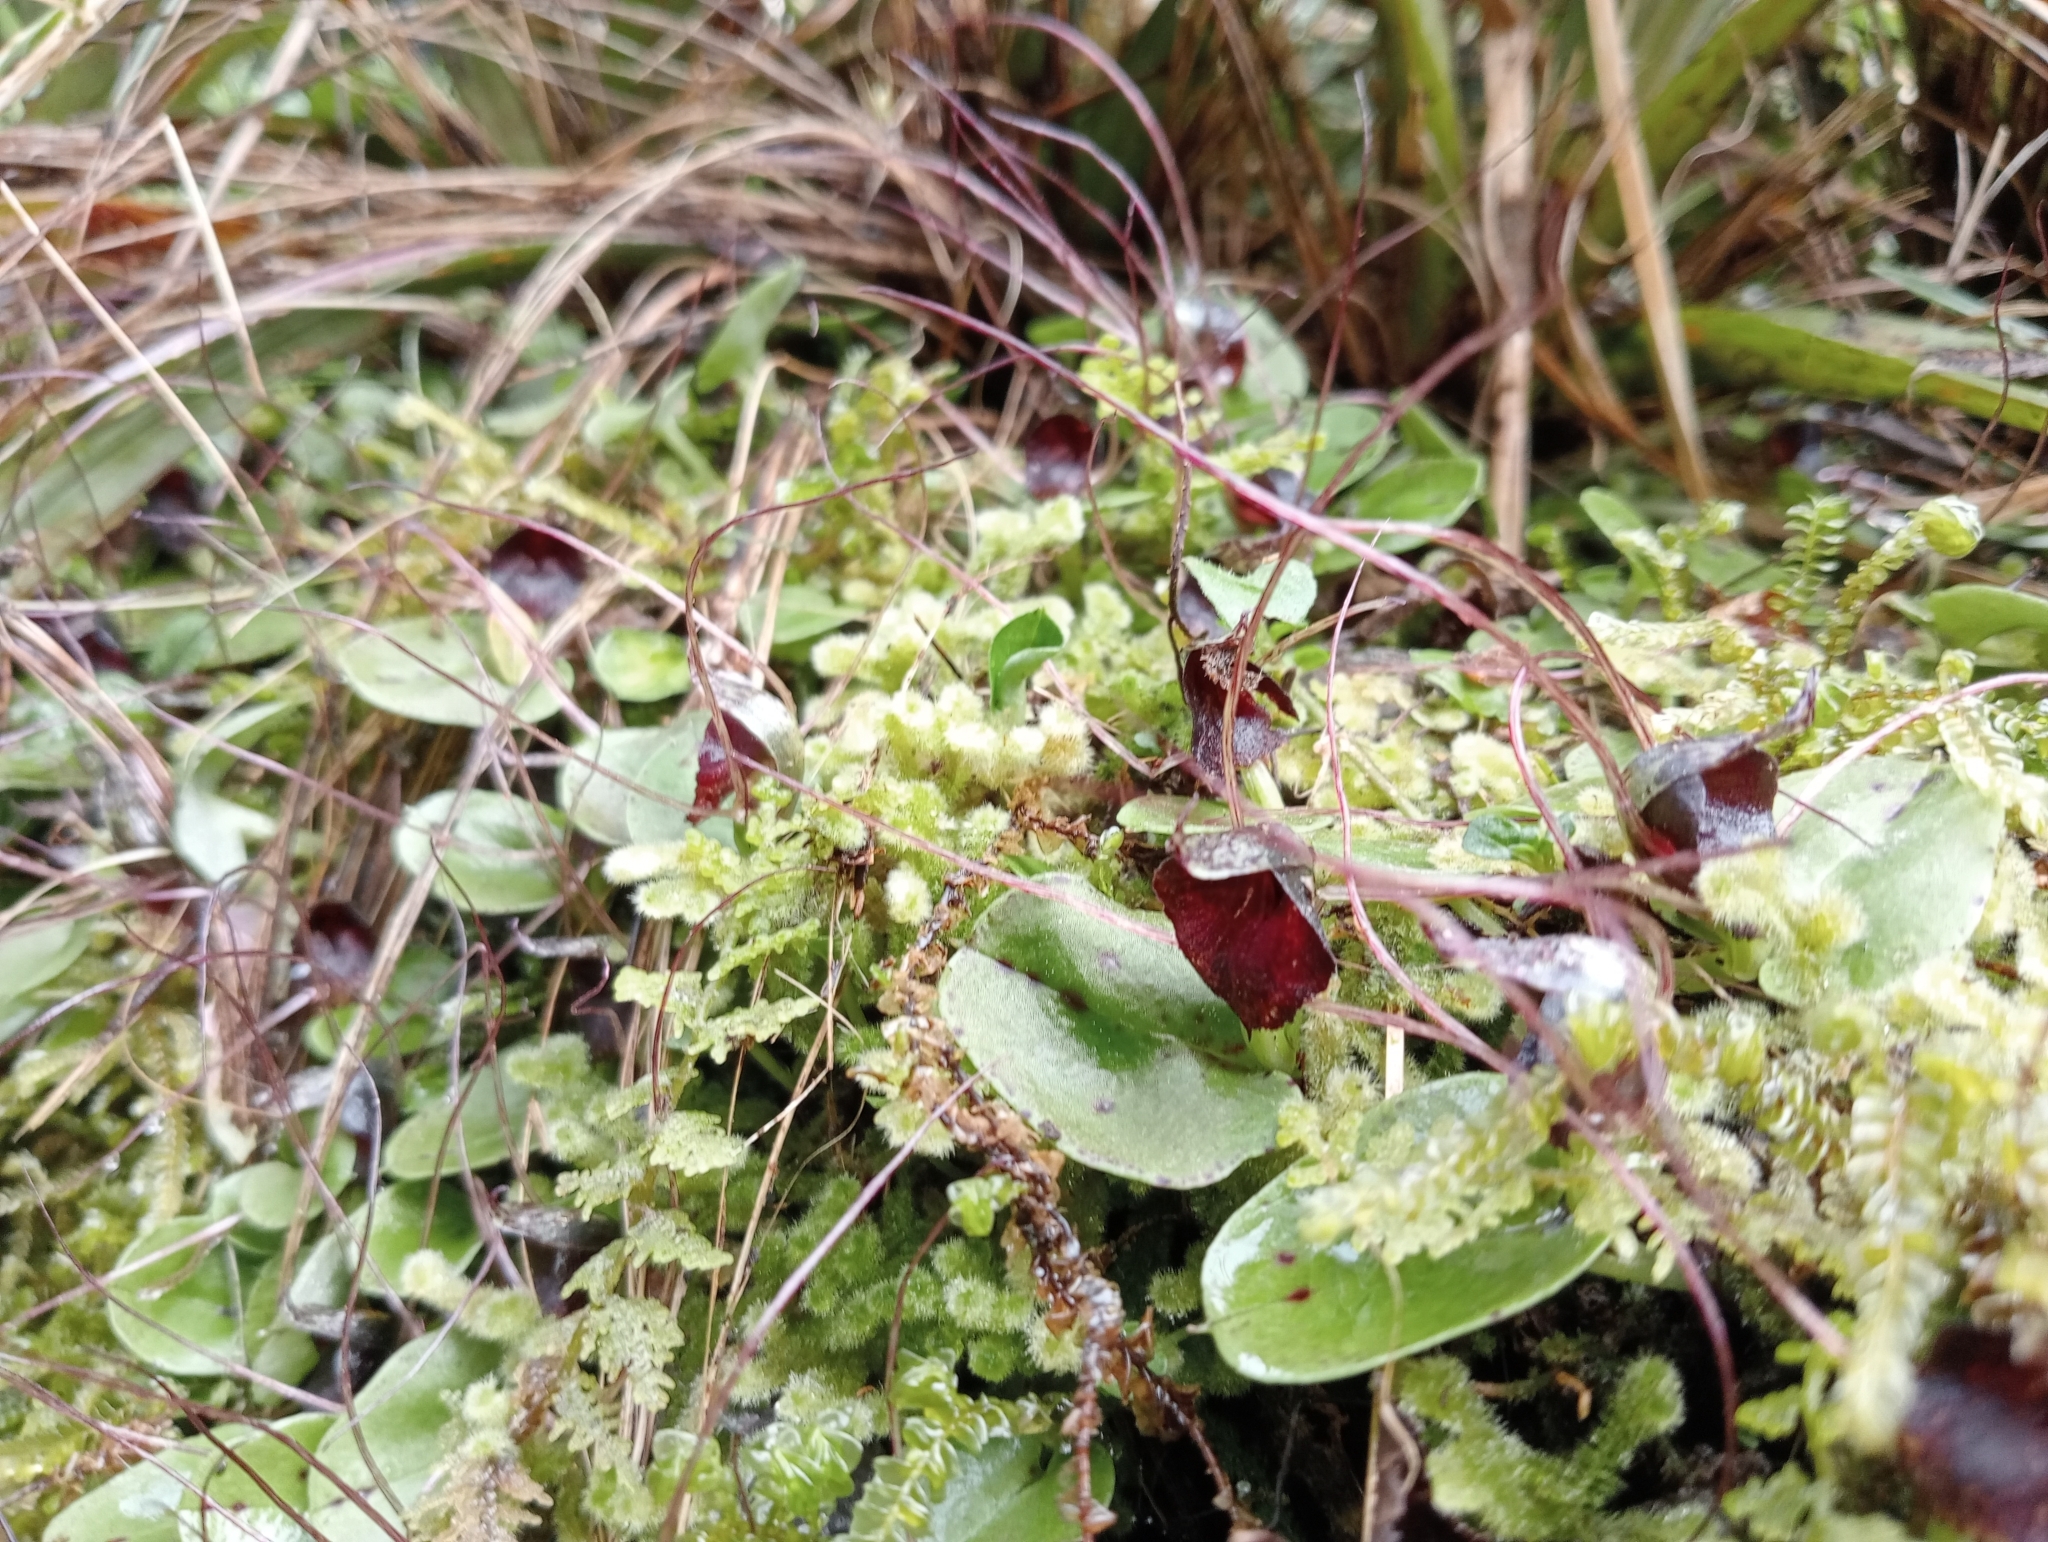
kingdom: Plantae
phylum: Tracheophyta
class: Liliopsida
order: Asparagales
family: Orchidaceae
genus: Corybas
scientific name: Corybas iridescens
